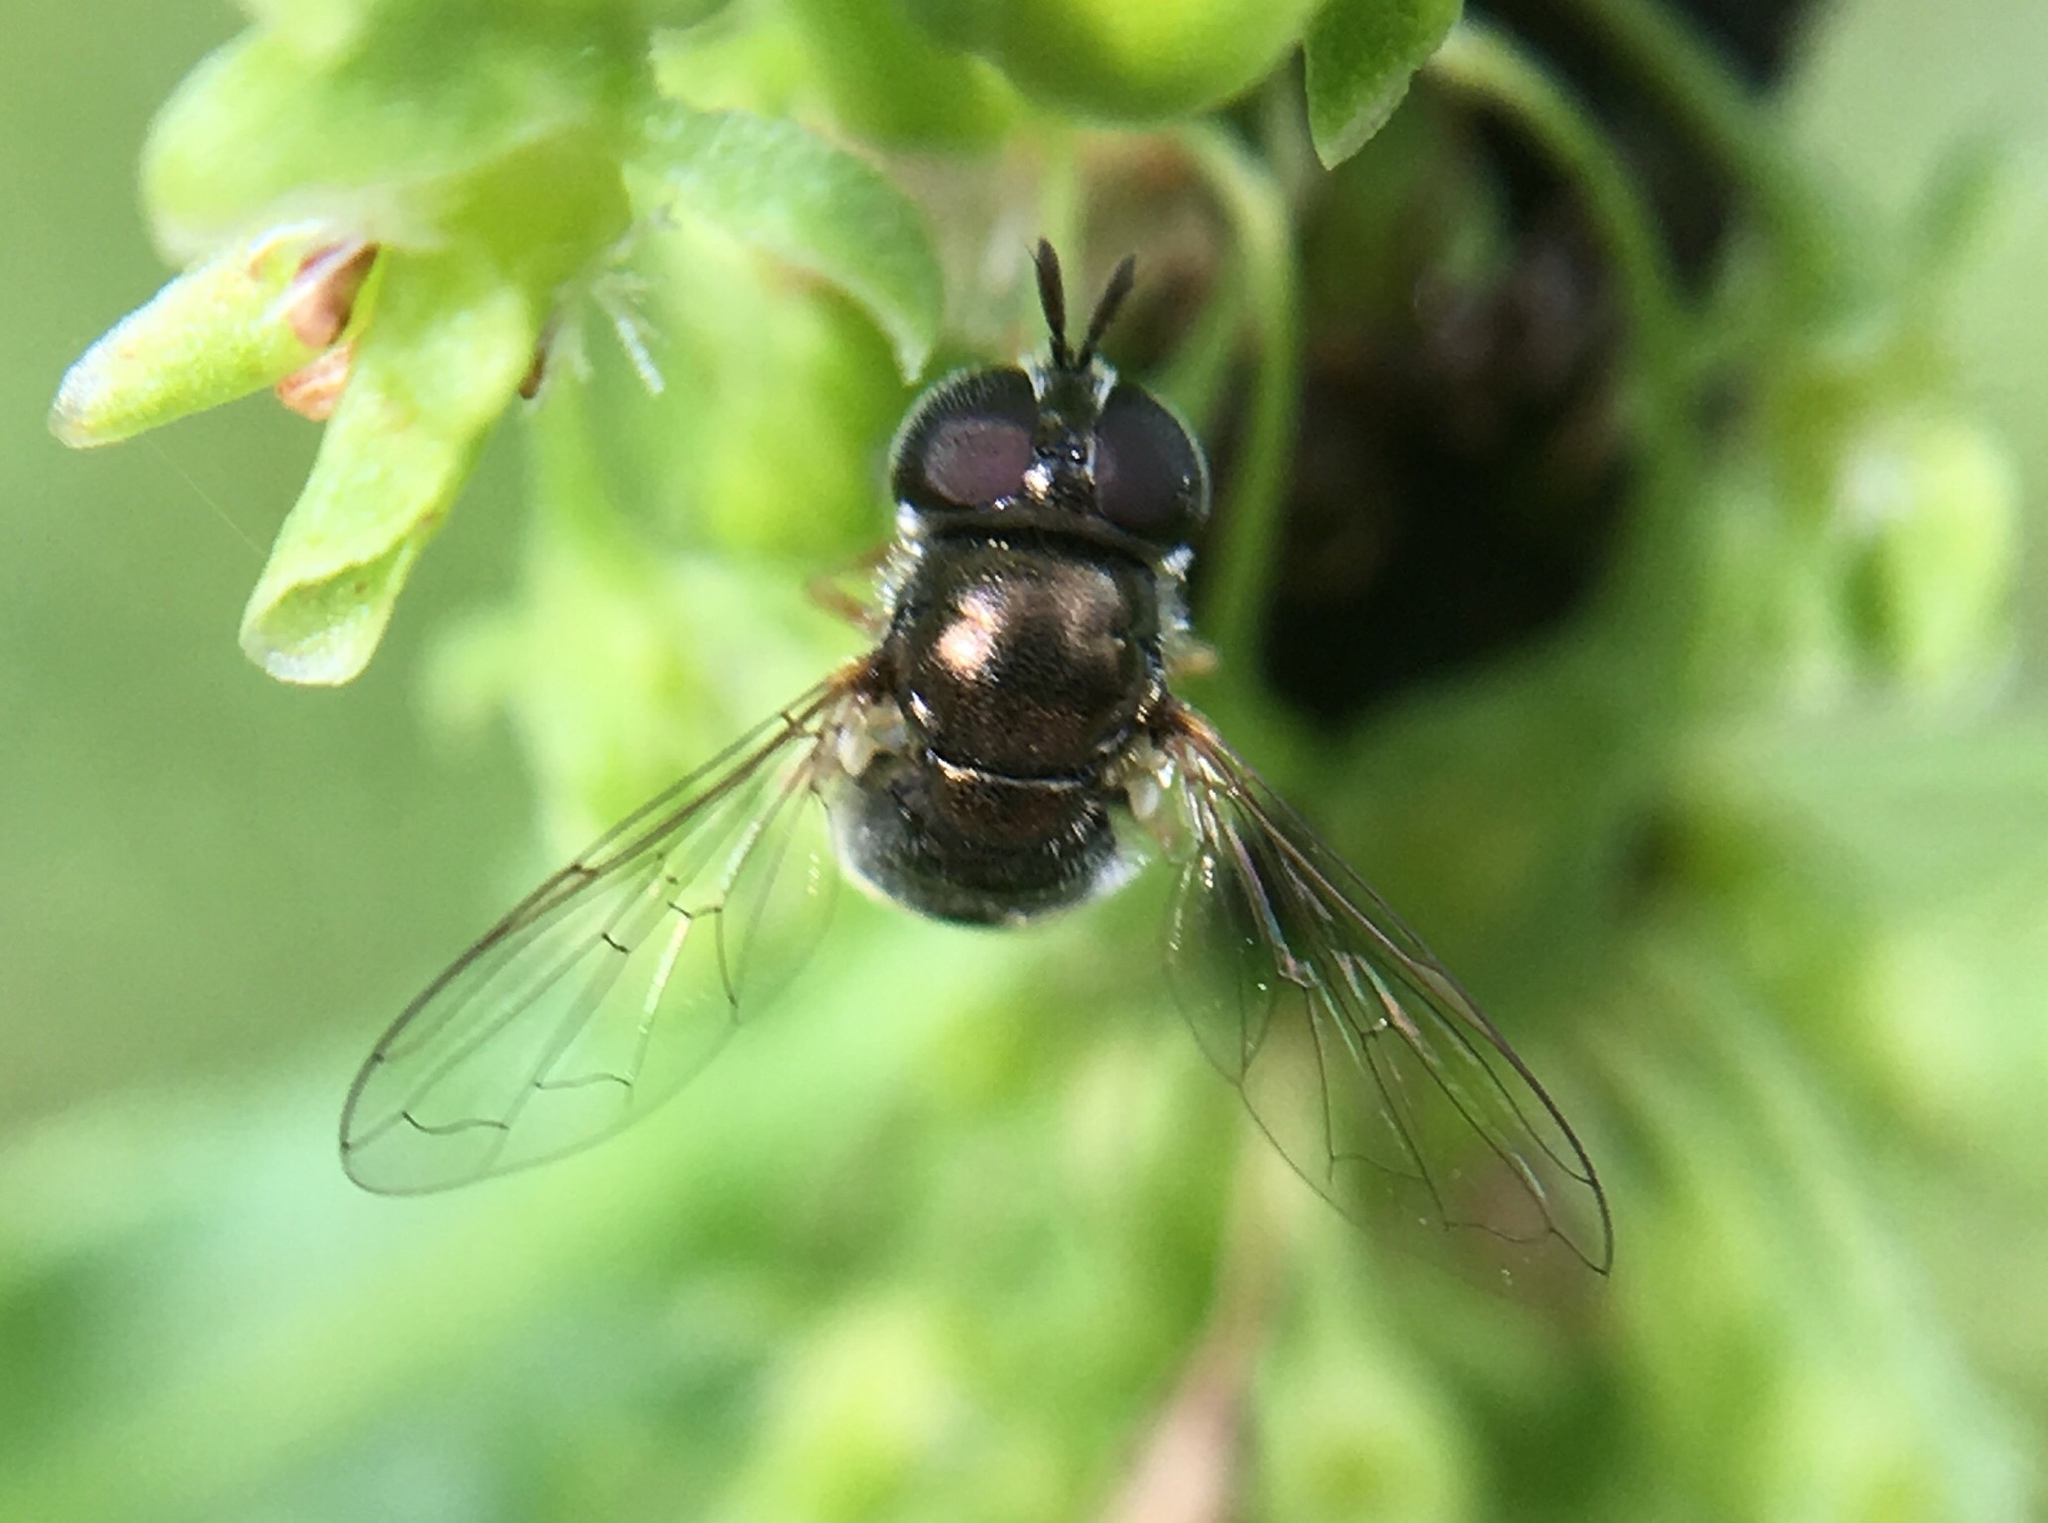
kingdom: Animalia
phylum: Arthropoda
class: Insecta
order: Diptera
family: Syrphidae
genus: Paragus
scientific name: Paragus haemorrhous
